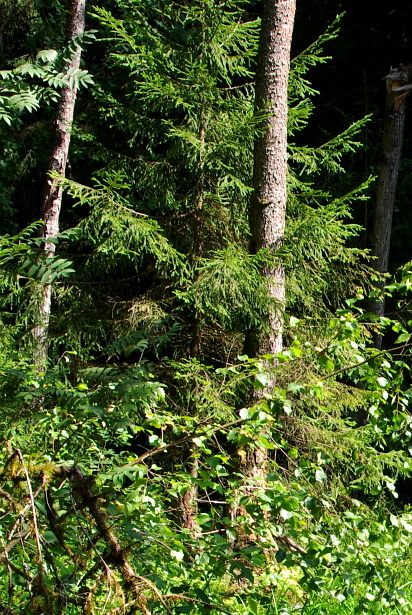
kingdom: Plantae
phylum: Tracheophyta
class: Pinopsida
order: Pinales
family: Pinaceae
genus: Picea
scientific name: Picea abies
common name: Norway spruce
